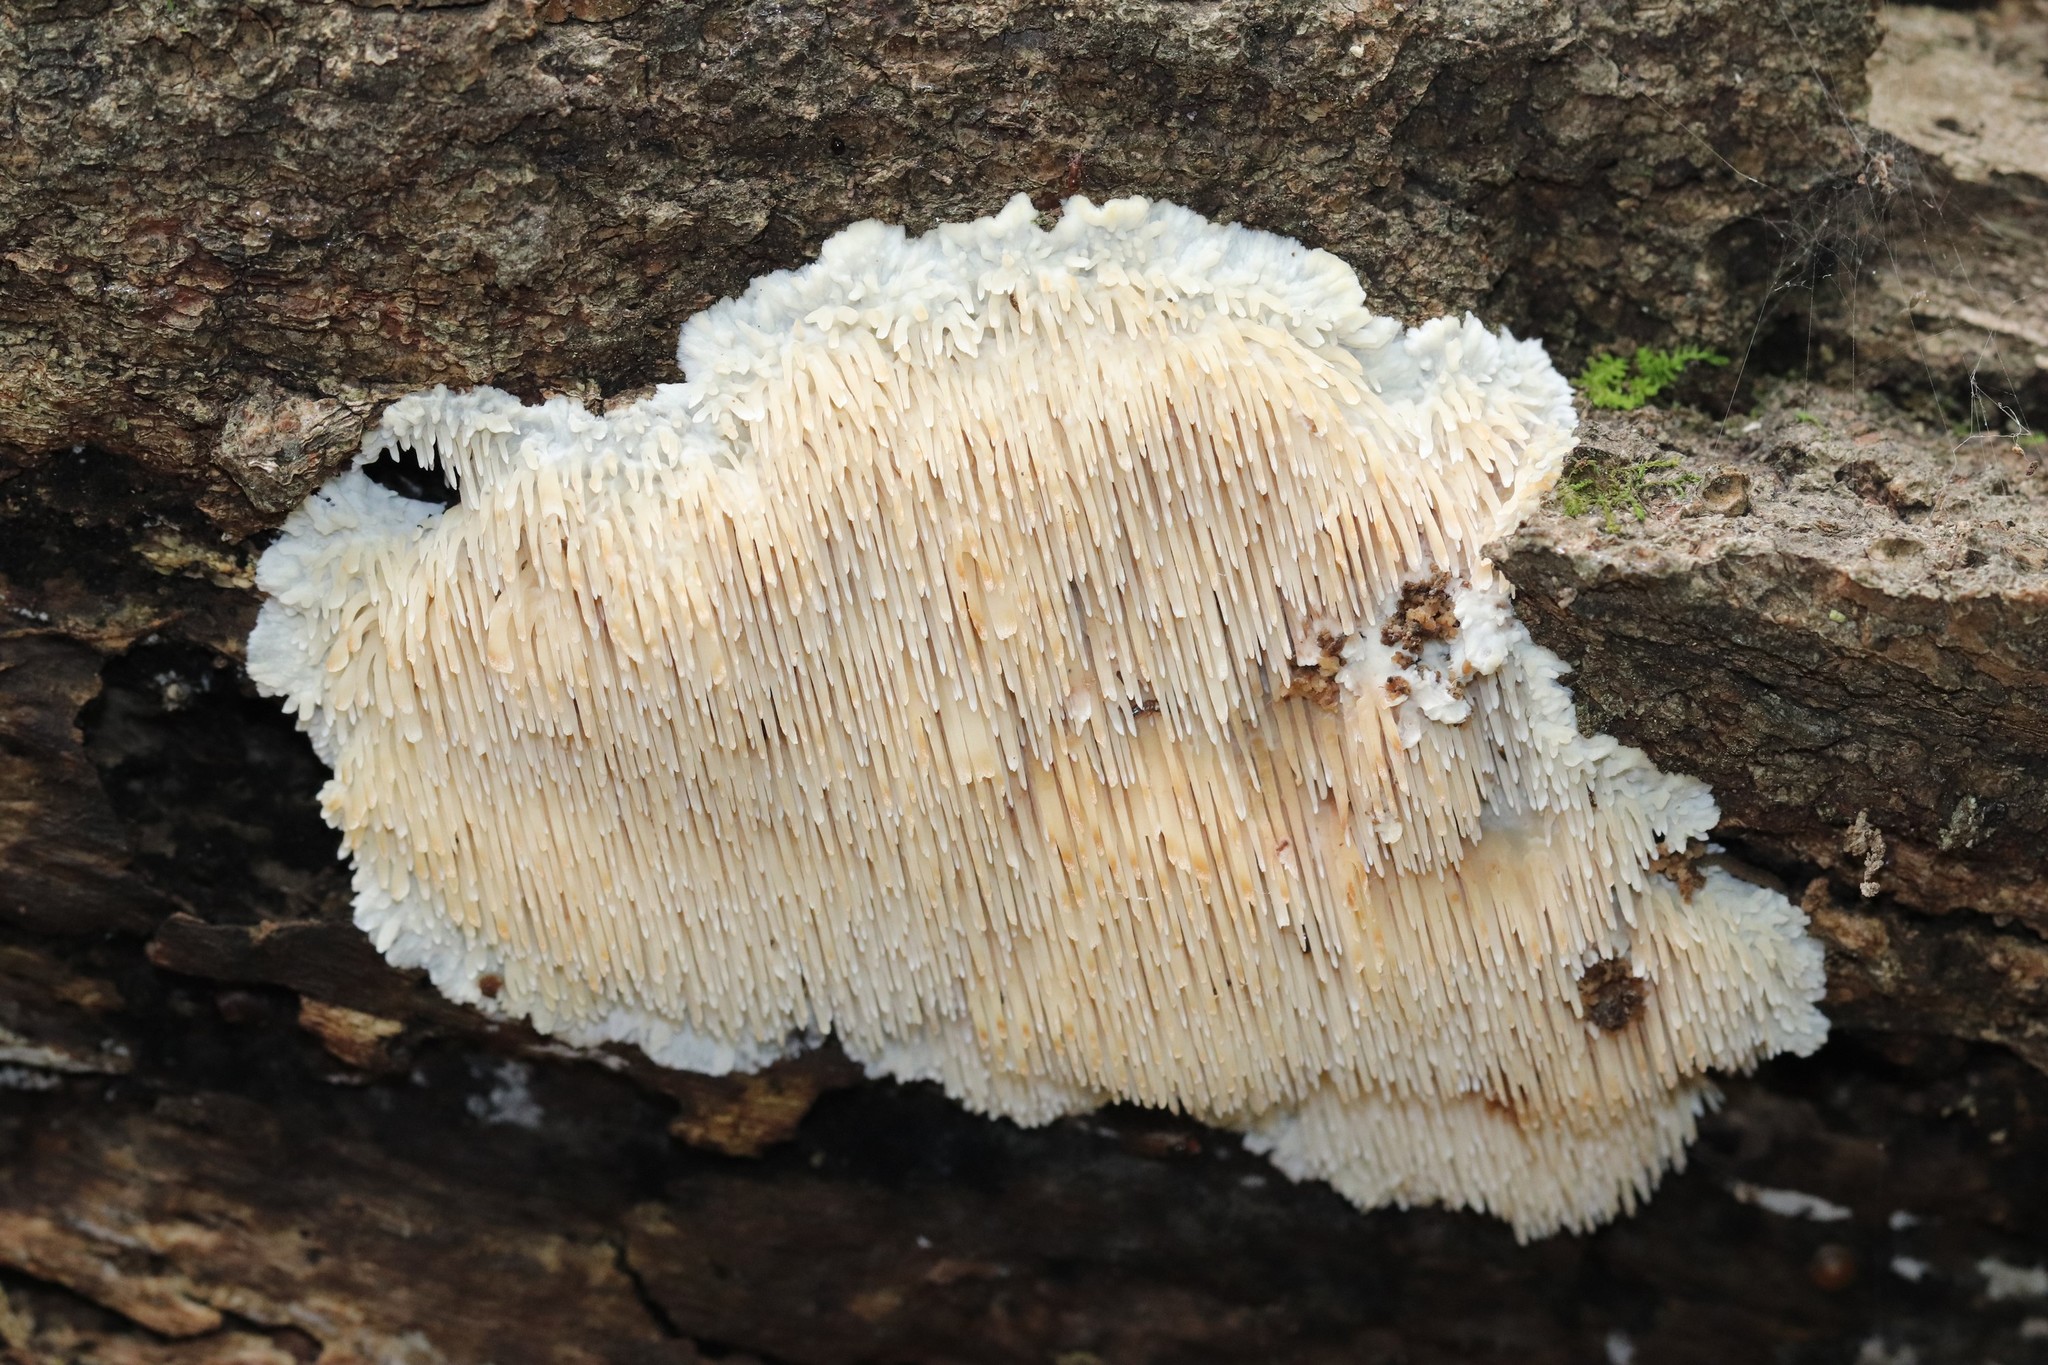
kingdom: Fungi
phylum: Basidiomycota
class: Agaricomycetes
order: Agaricales
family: Radulomycetaceae
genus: Radulomyces
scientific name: Radulomyces copelandii
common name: Asian beauty
